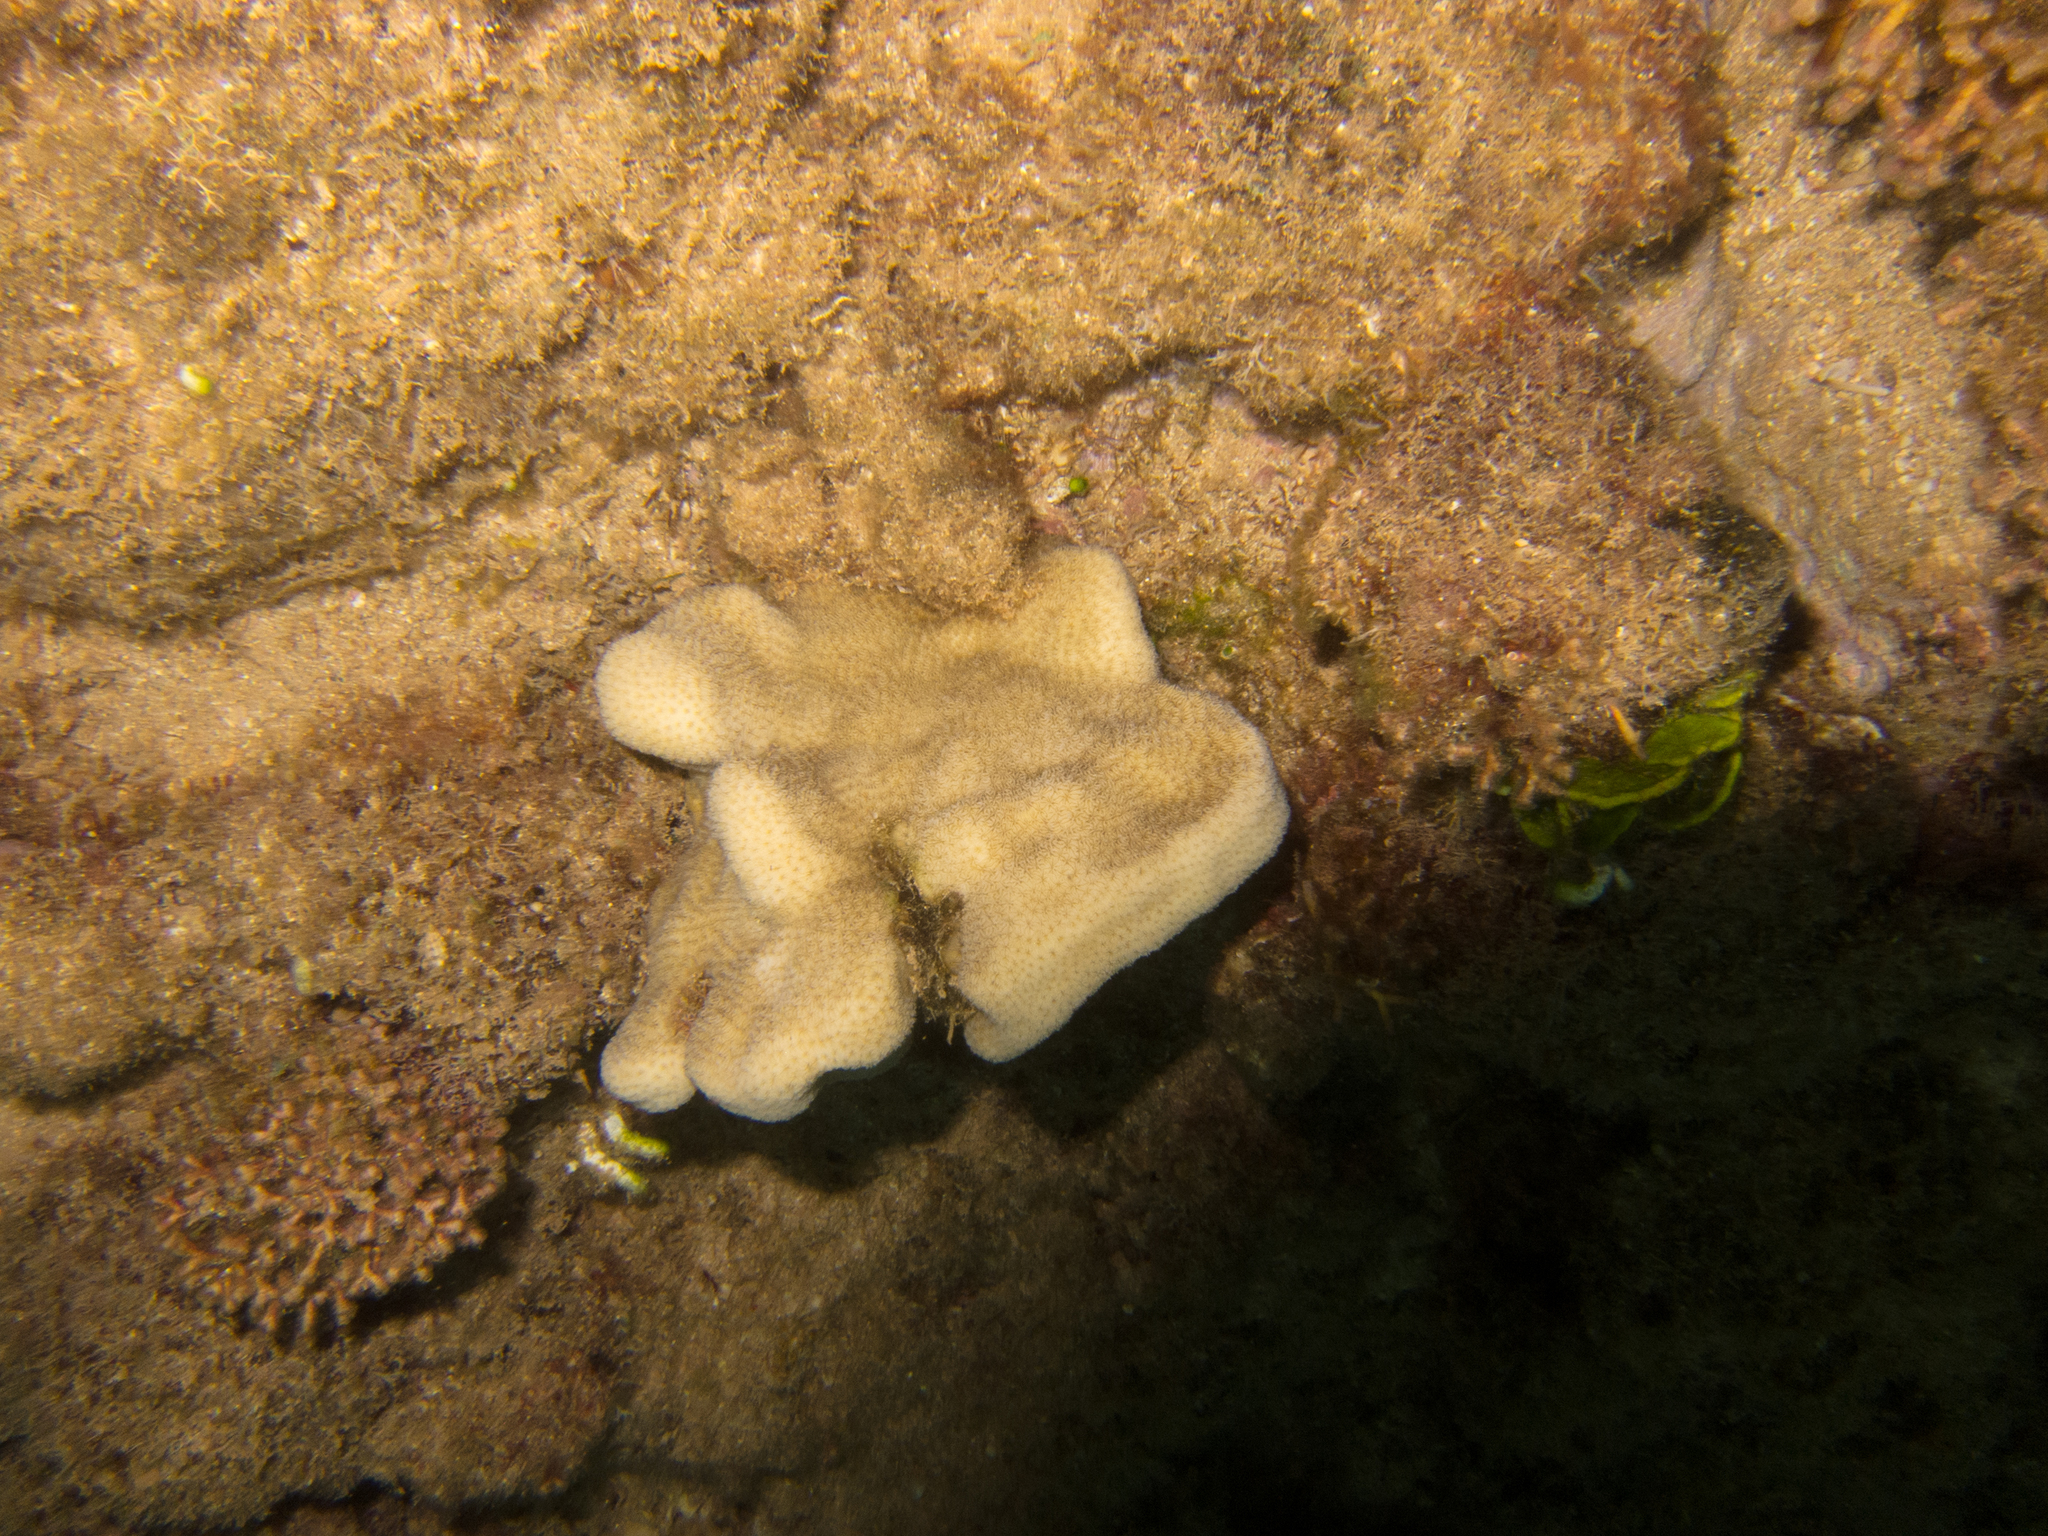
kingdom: Animalia
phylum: Cnidaria
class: Anthozoa
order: Scleractinia
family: Agariciidae
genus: Pavona
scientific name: Pavona duerdeni
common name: Leaf coral
